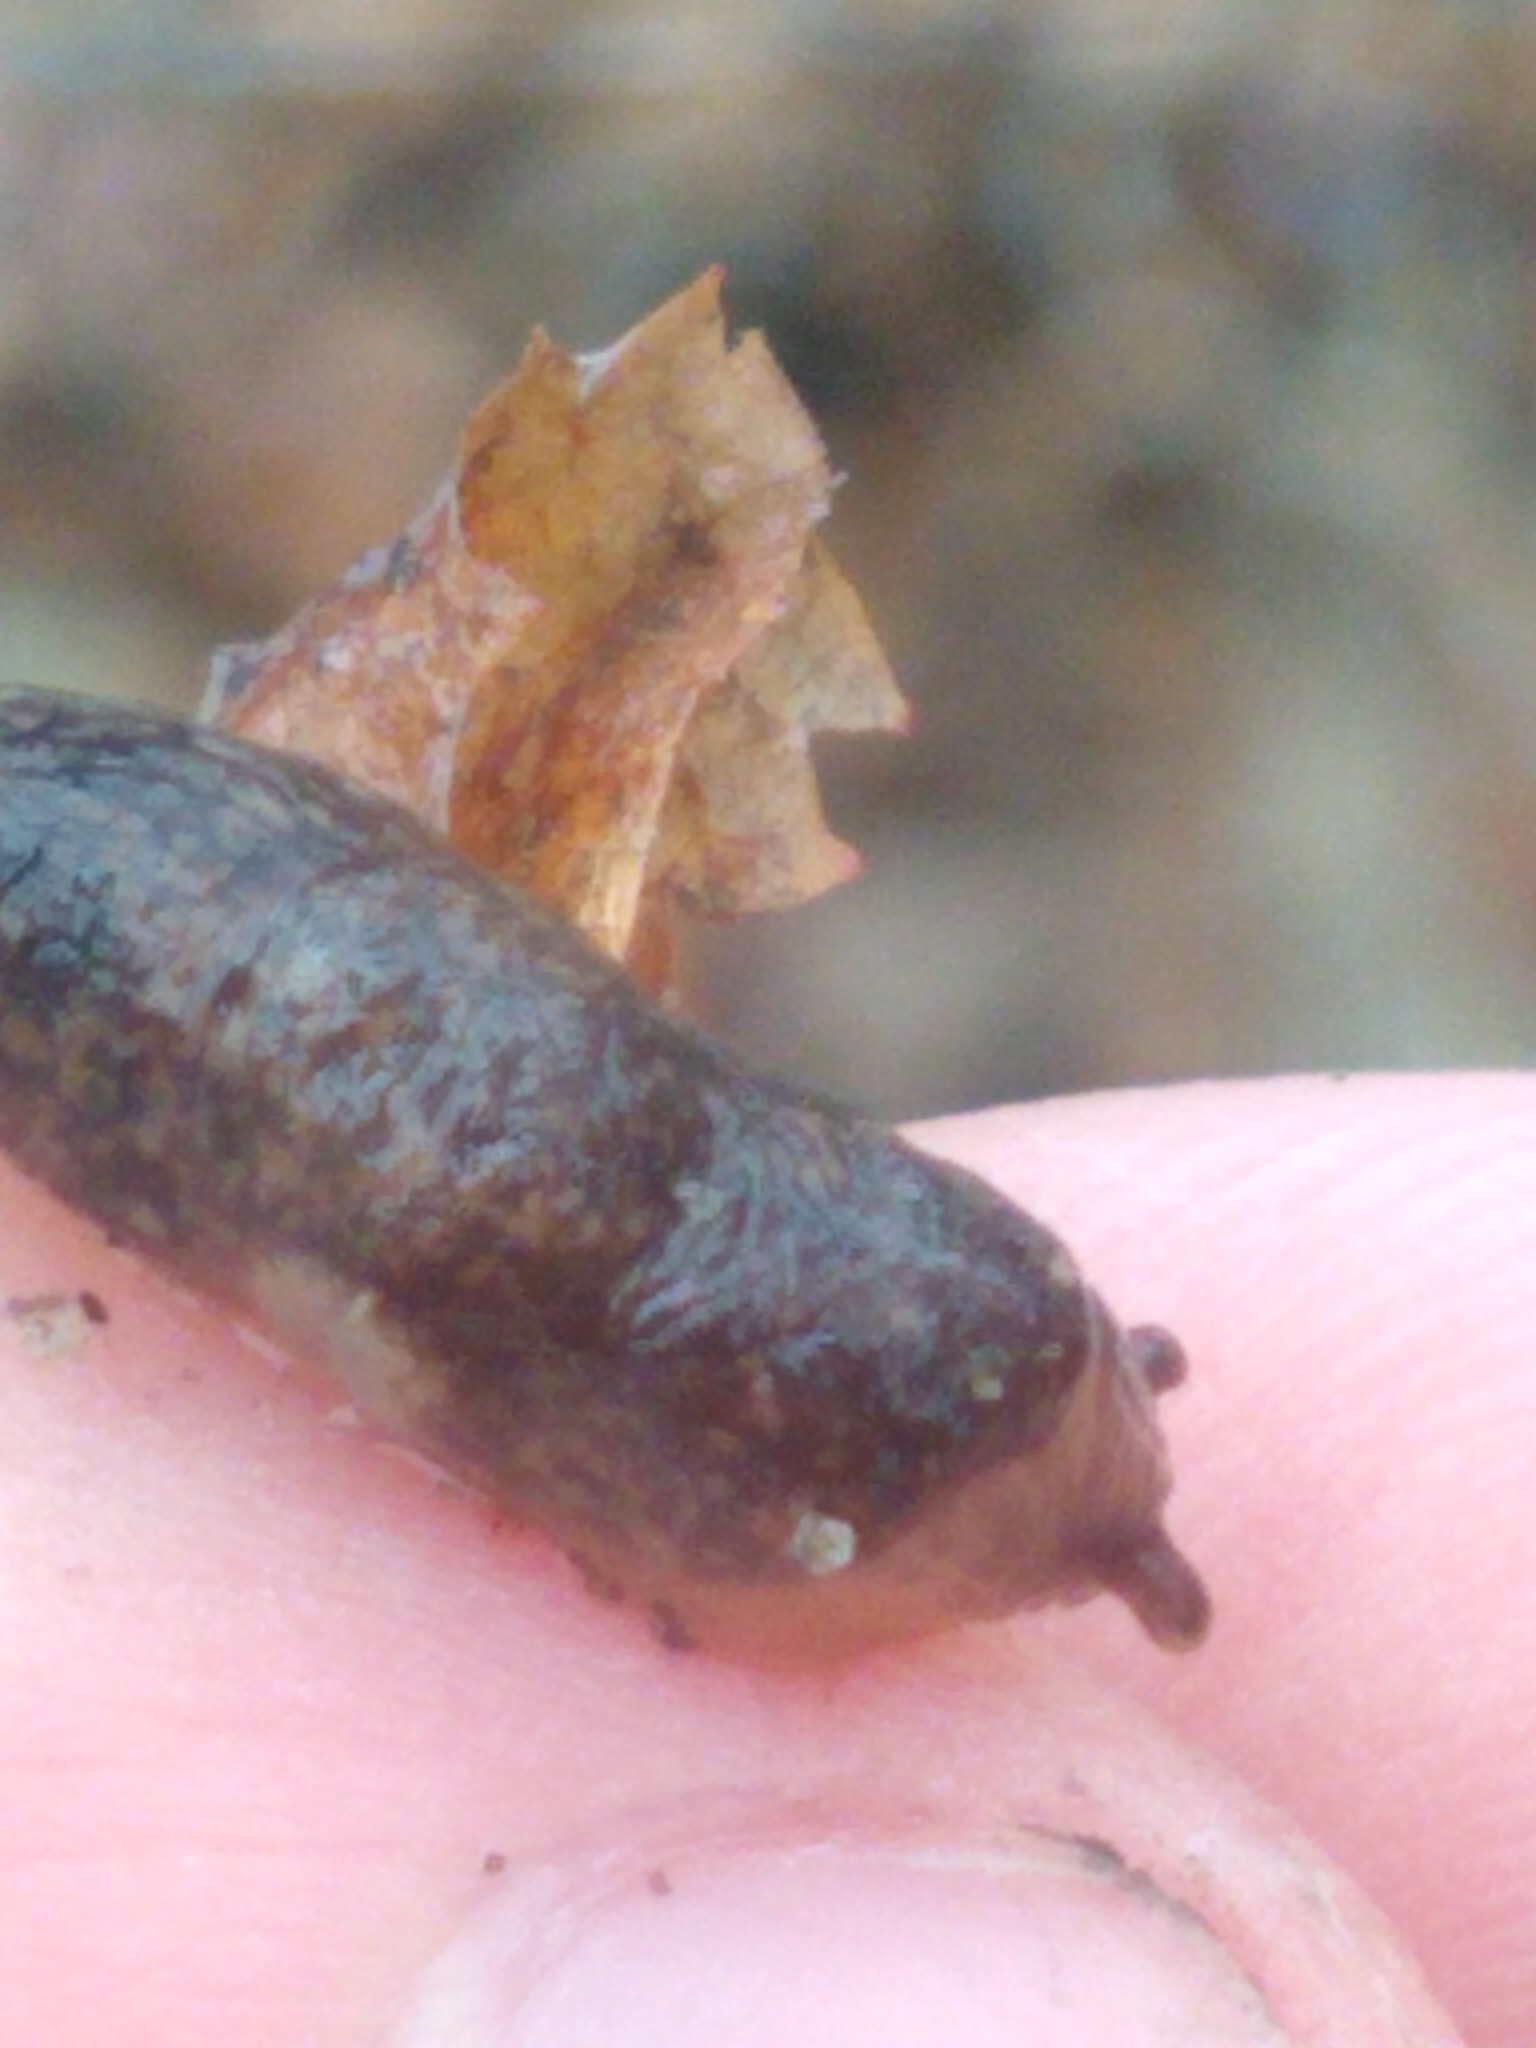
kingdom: Animalia
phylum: Mollusca
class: Gastropoda
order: Stylommatophora
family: Agriolimacidae
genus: Deroceras
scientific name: Deroceras reticulatum
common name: Gray field slug
